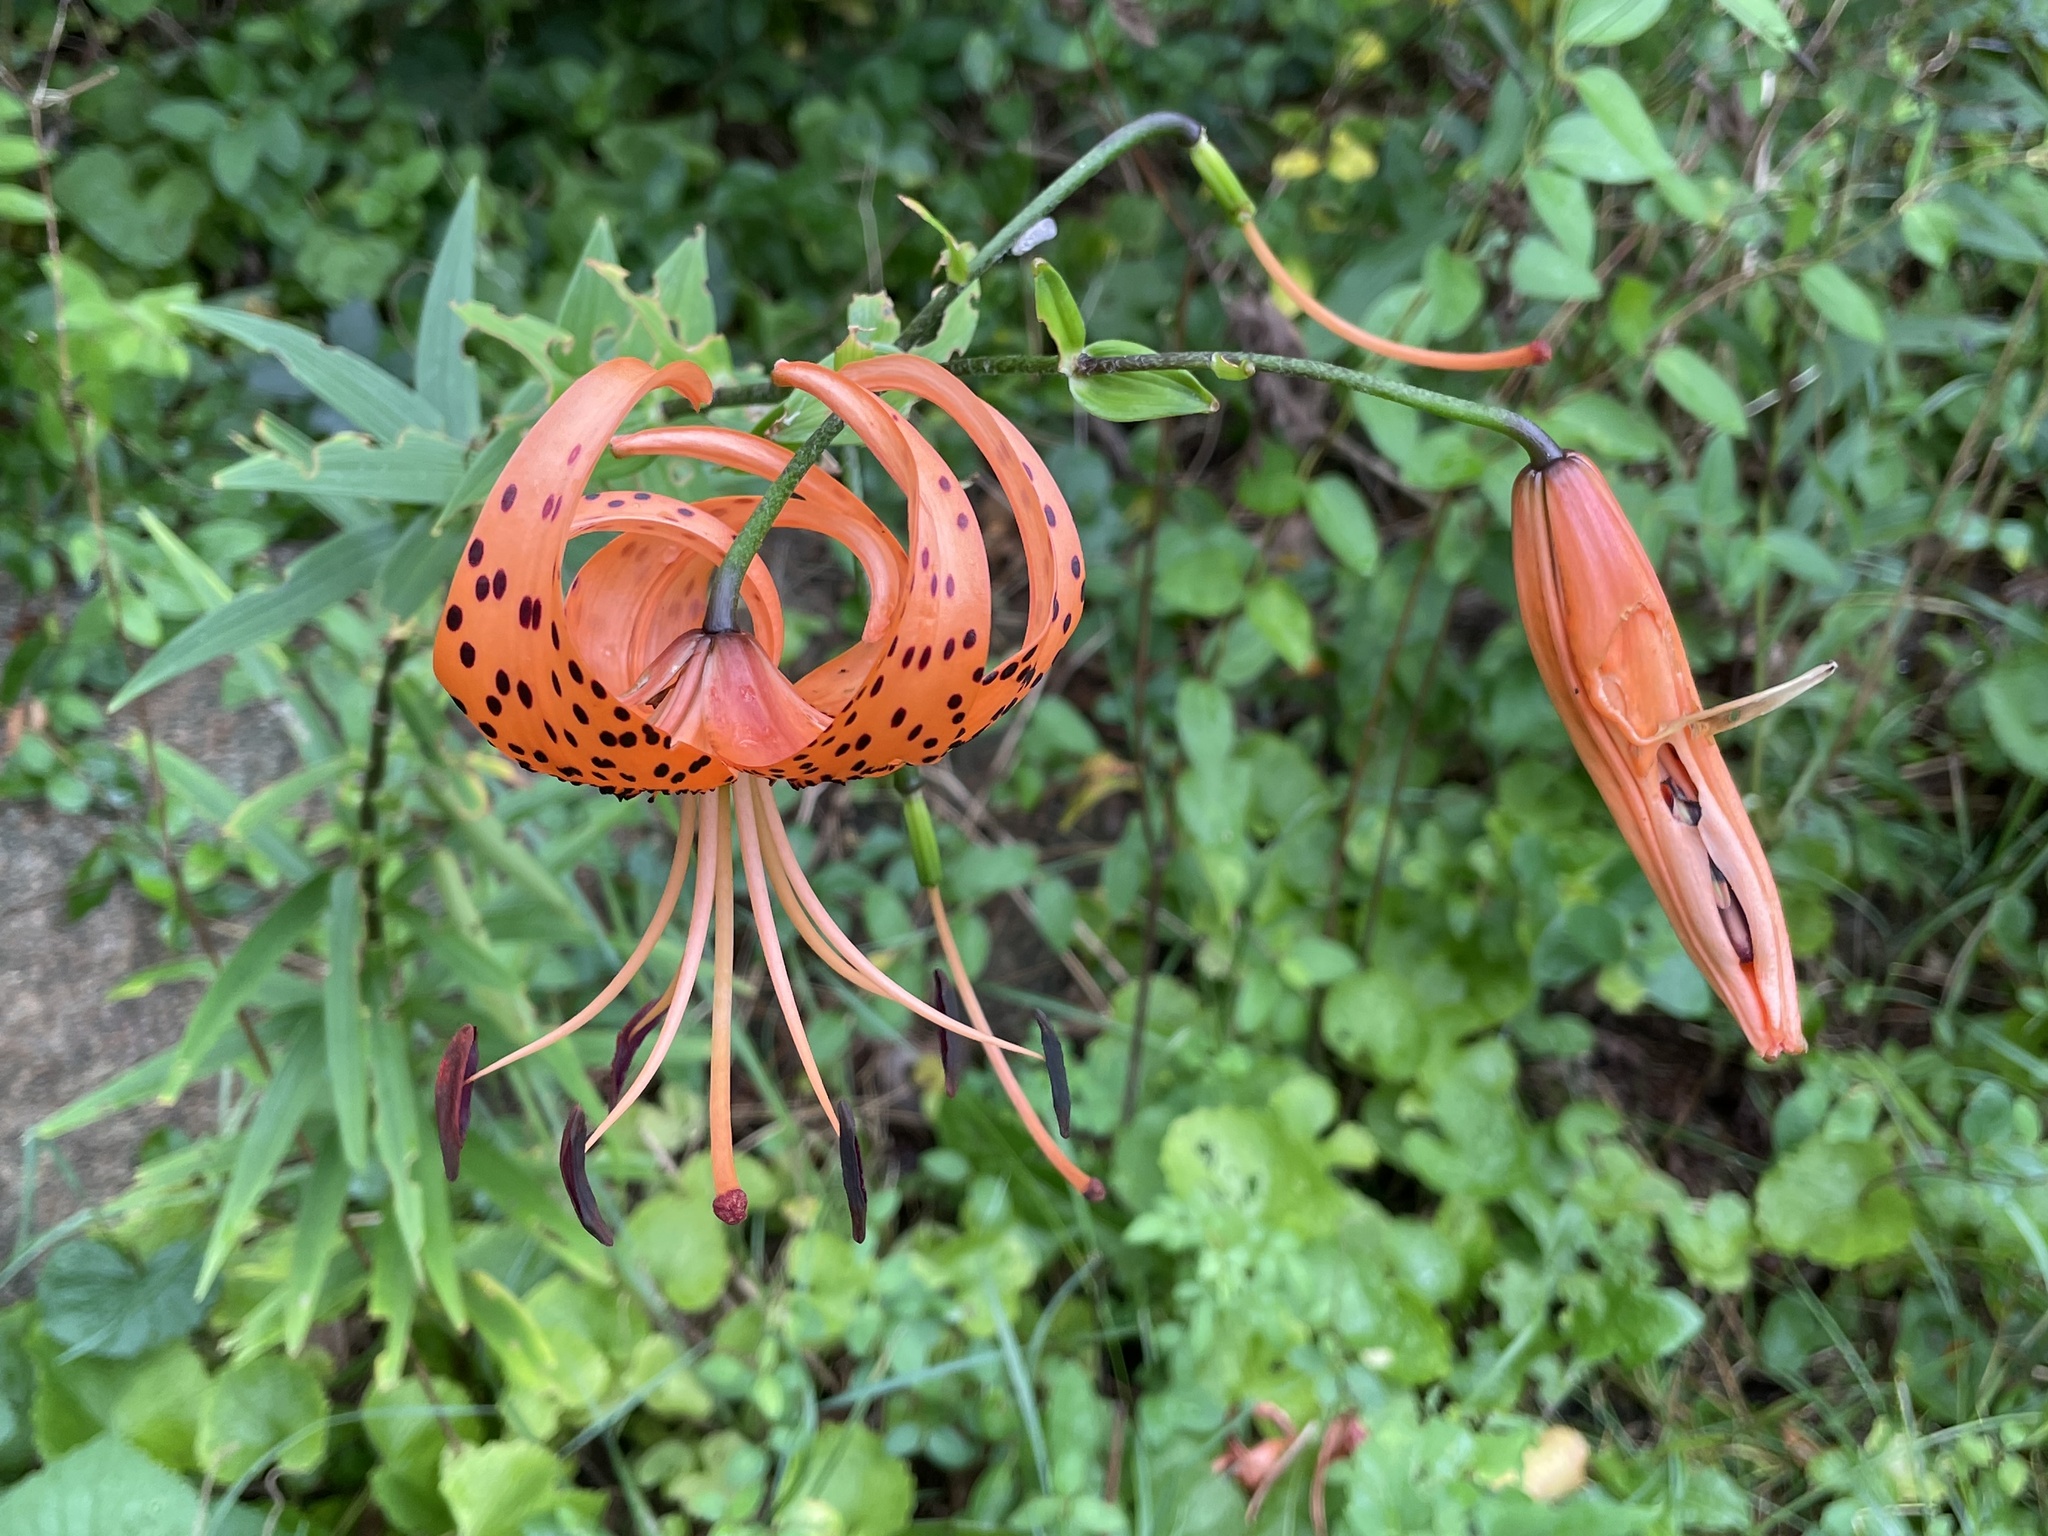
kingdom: Plantae
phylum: Tracheophyta
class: Liliopsida
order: Liliales
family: Liliaceae
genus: Lilium
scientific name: Lilium lancifolium
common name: Tiger lily
